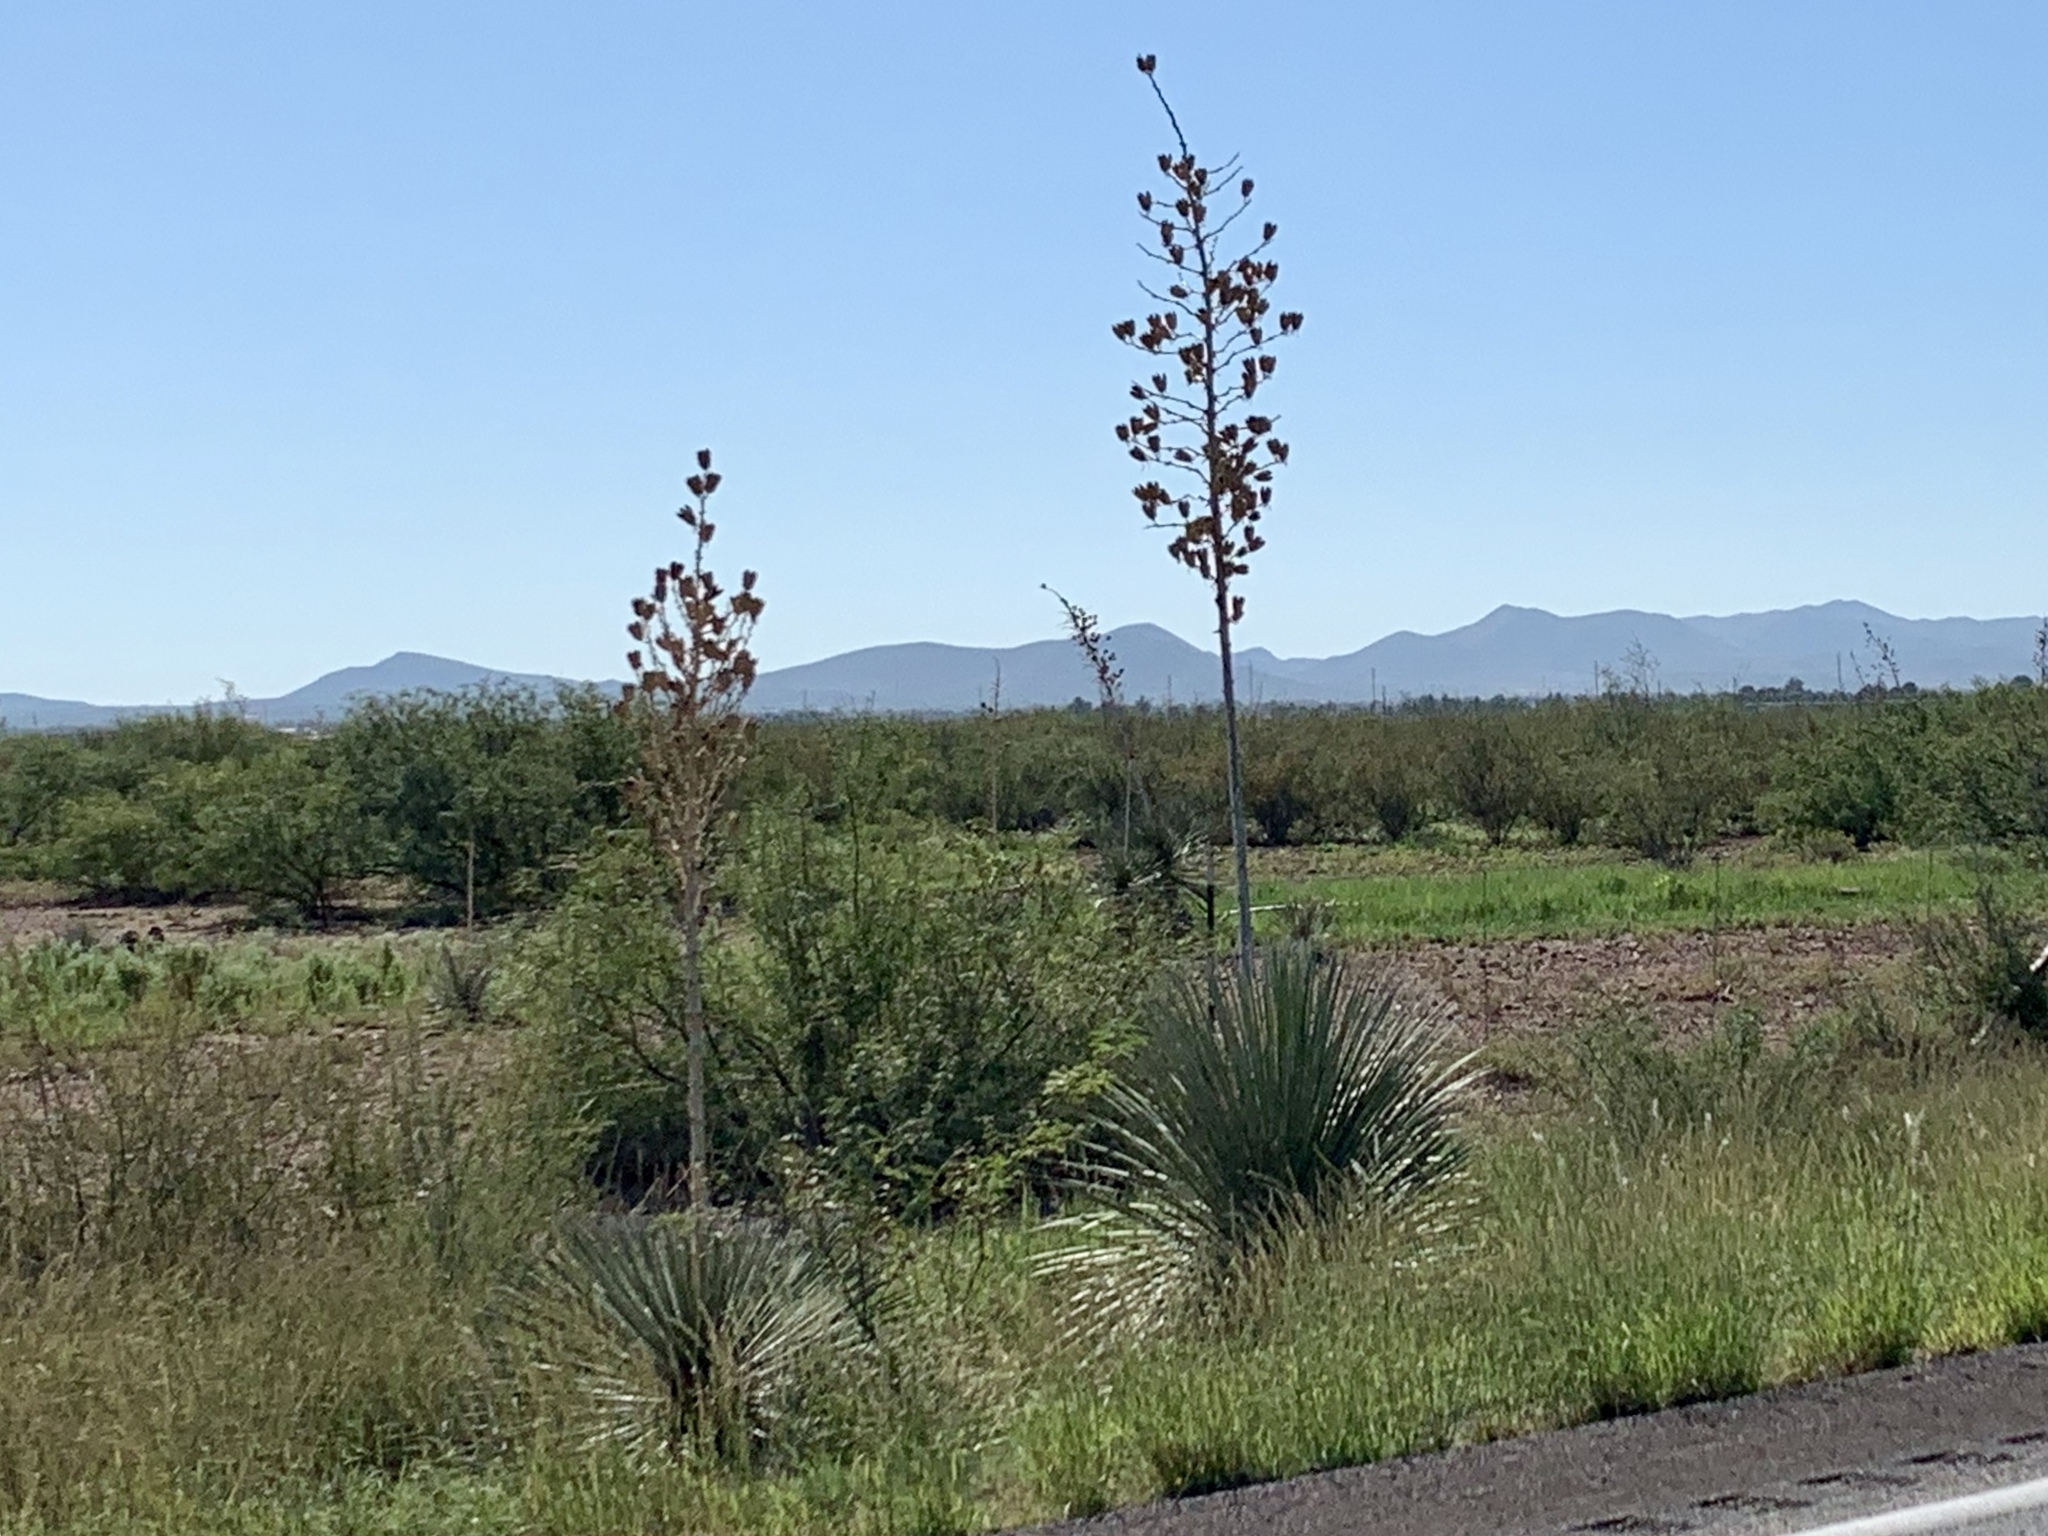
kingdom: Plantae
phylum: Tracheophyta
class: Liliopsida
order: Asparagales
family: Asparagaceae
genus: Yucca
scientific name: Yucca elata
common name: Palmella
